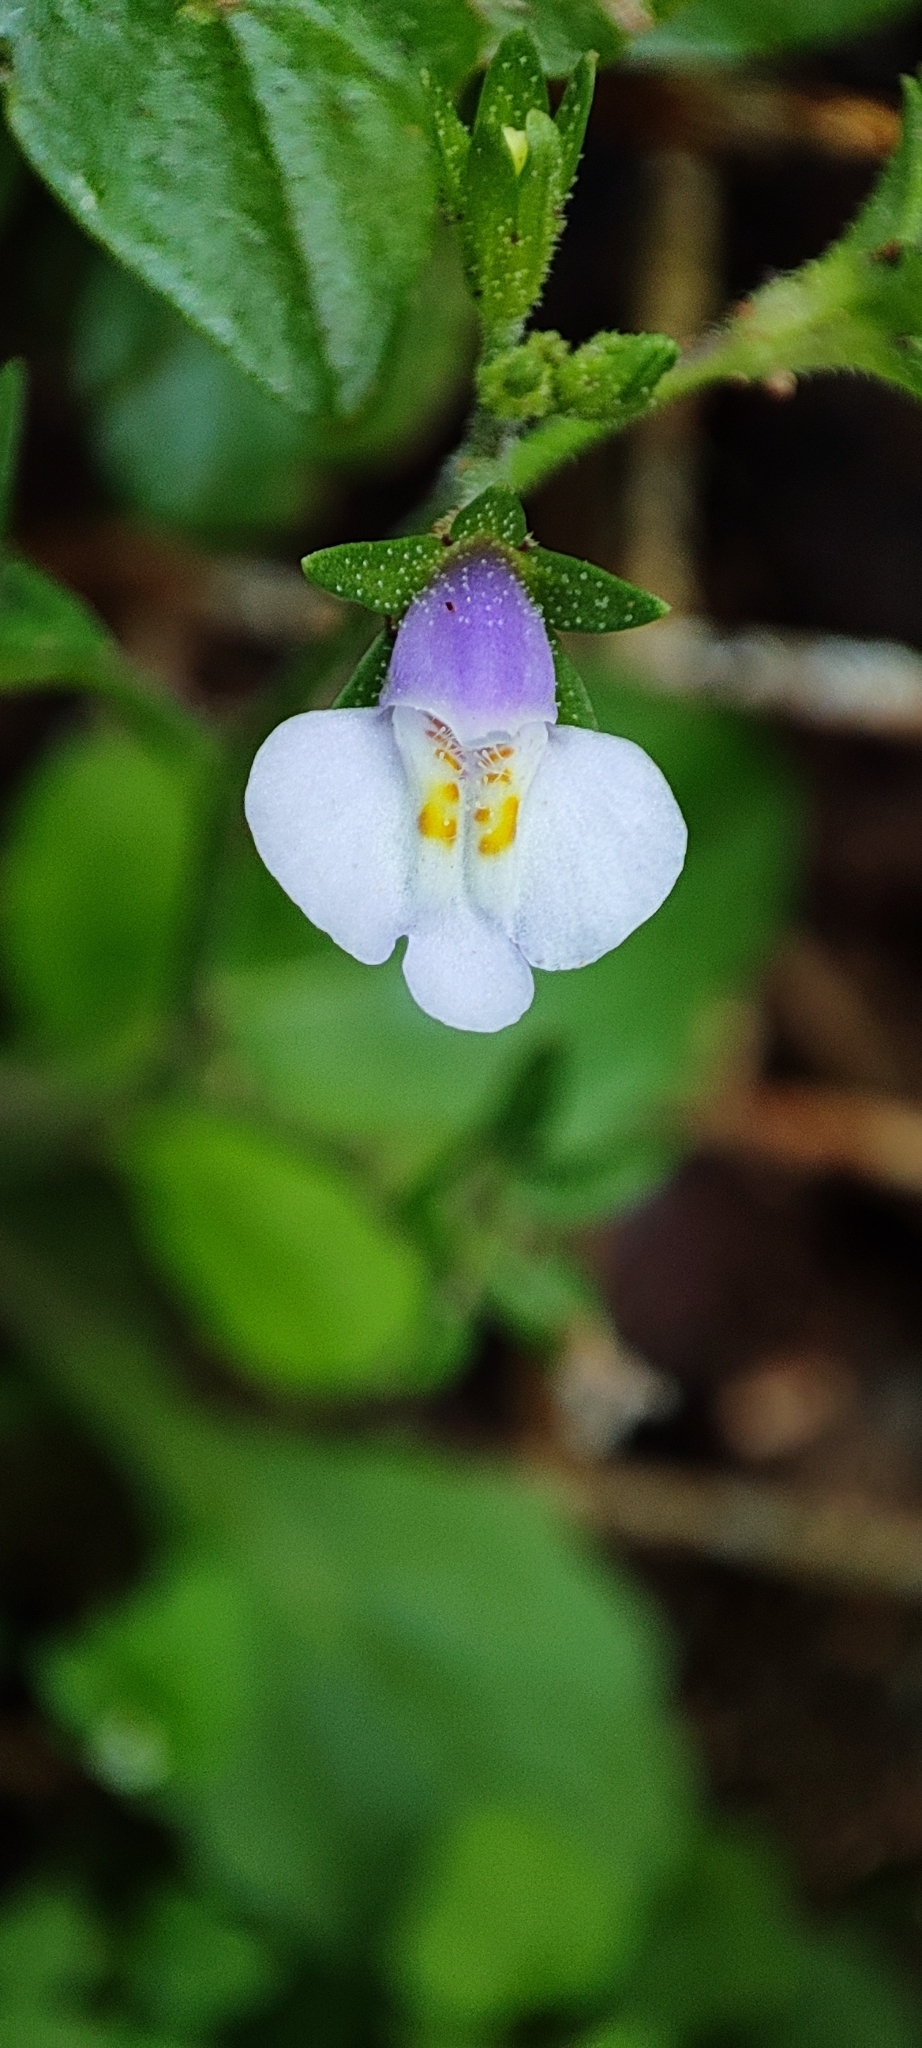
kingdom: Plantae
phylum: Tracheophyta
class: Magnoliopsida
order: Lamiales
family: Mazaceae
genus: Mazus
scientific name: Mazus pumilus
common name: Japanese mazus
